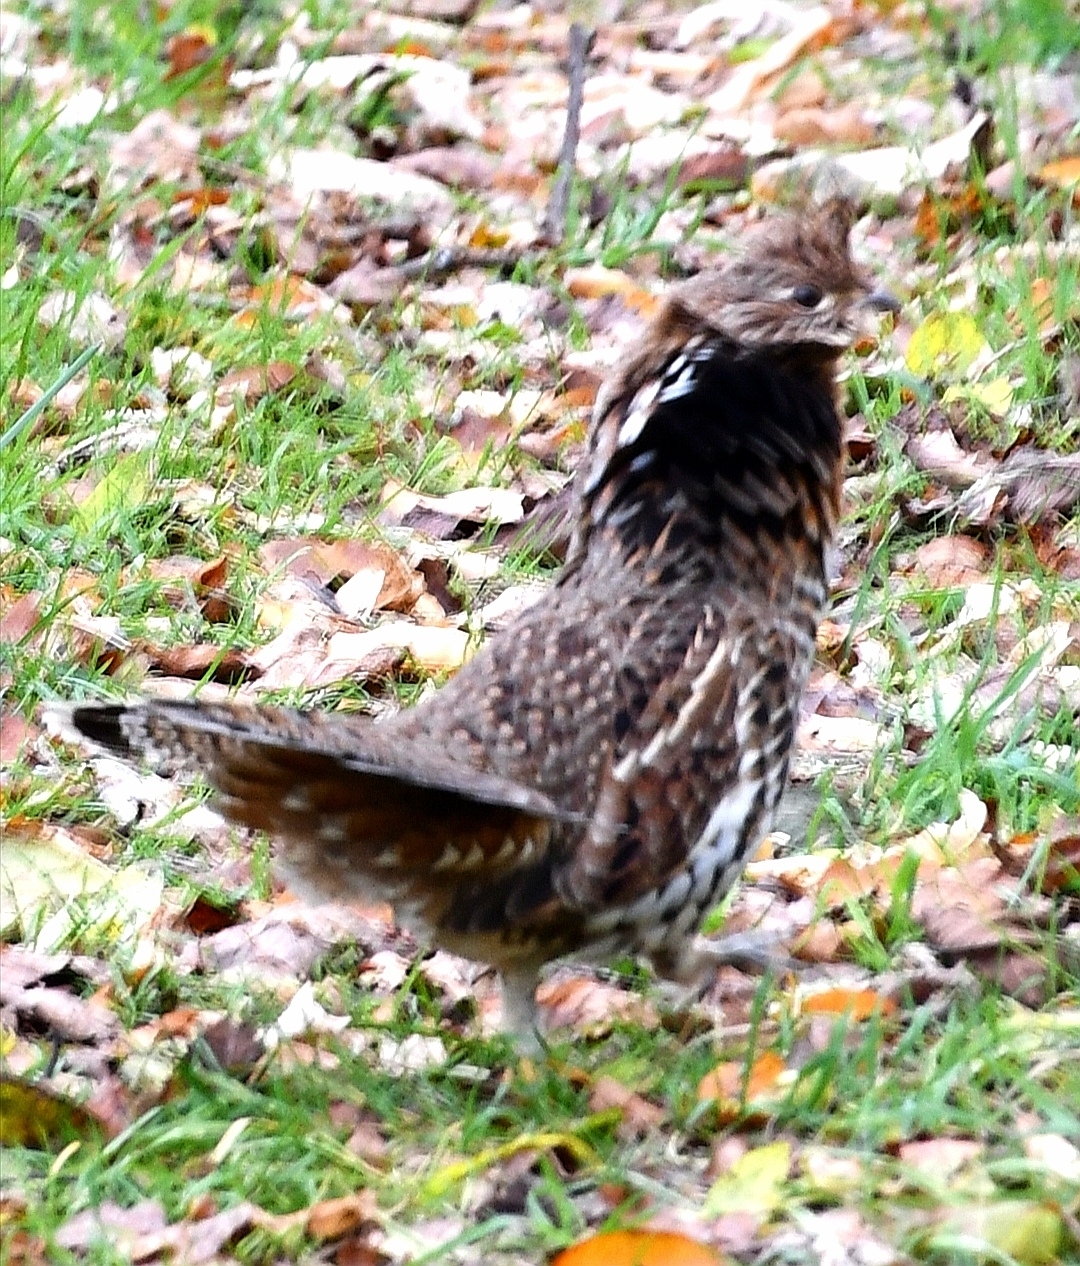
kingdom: Animalia
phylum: Chordata
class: Aves
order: Galliformes
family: Phasianidae
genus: Bonasa
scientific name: Bonasa umbellus
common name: Ruffed grouse
